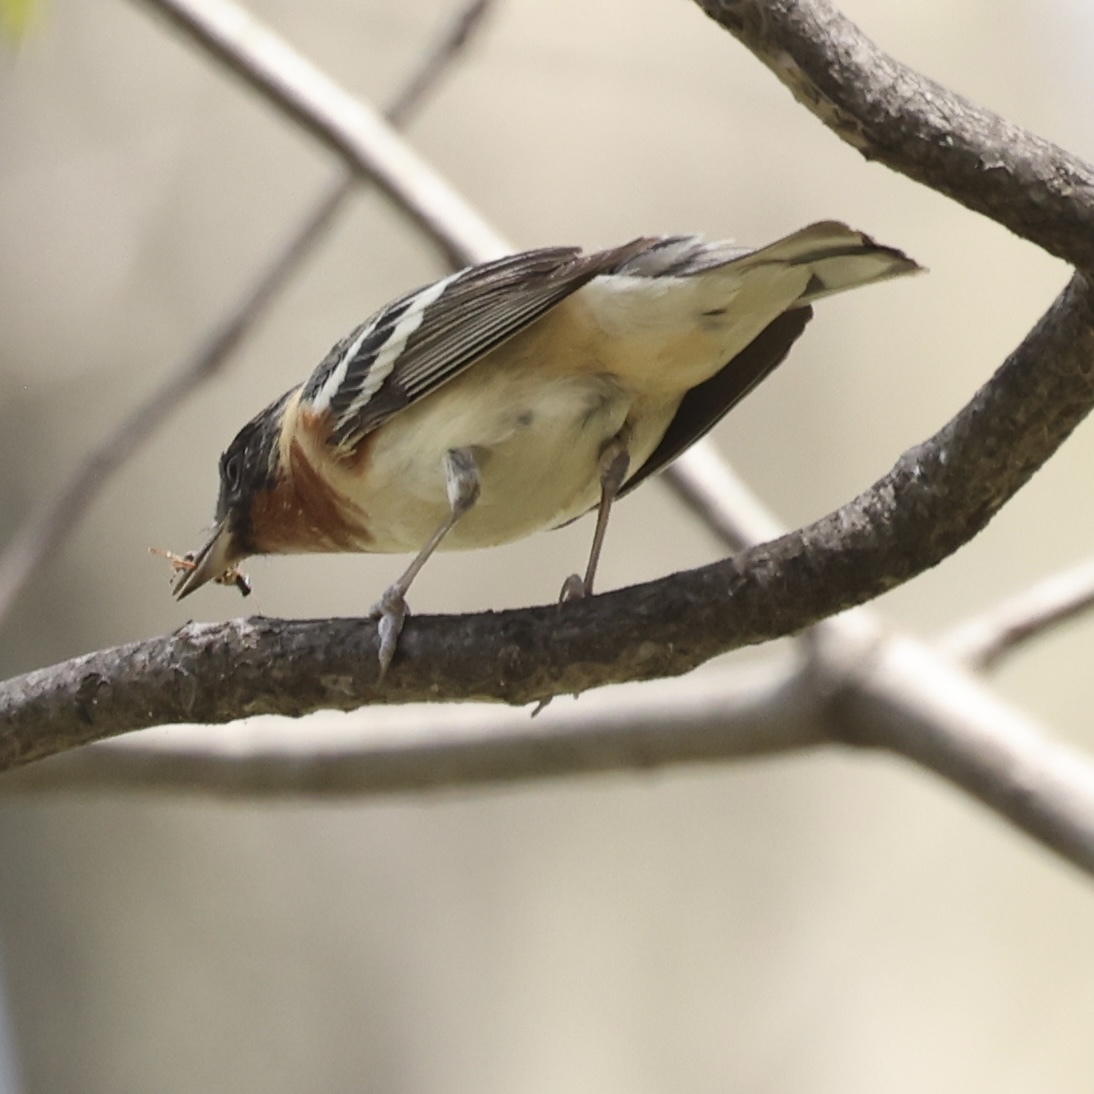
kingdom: Animalia
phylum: Chordata
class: Aves
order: Passeriformes
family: Parulidae
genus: Setophaga
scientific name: Setophaga castanea
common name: Bay-breasted warbler
